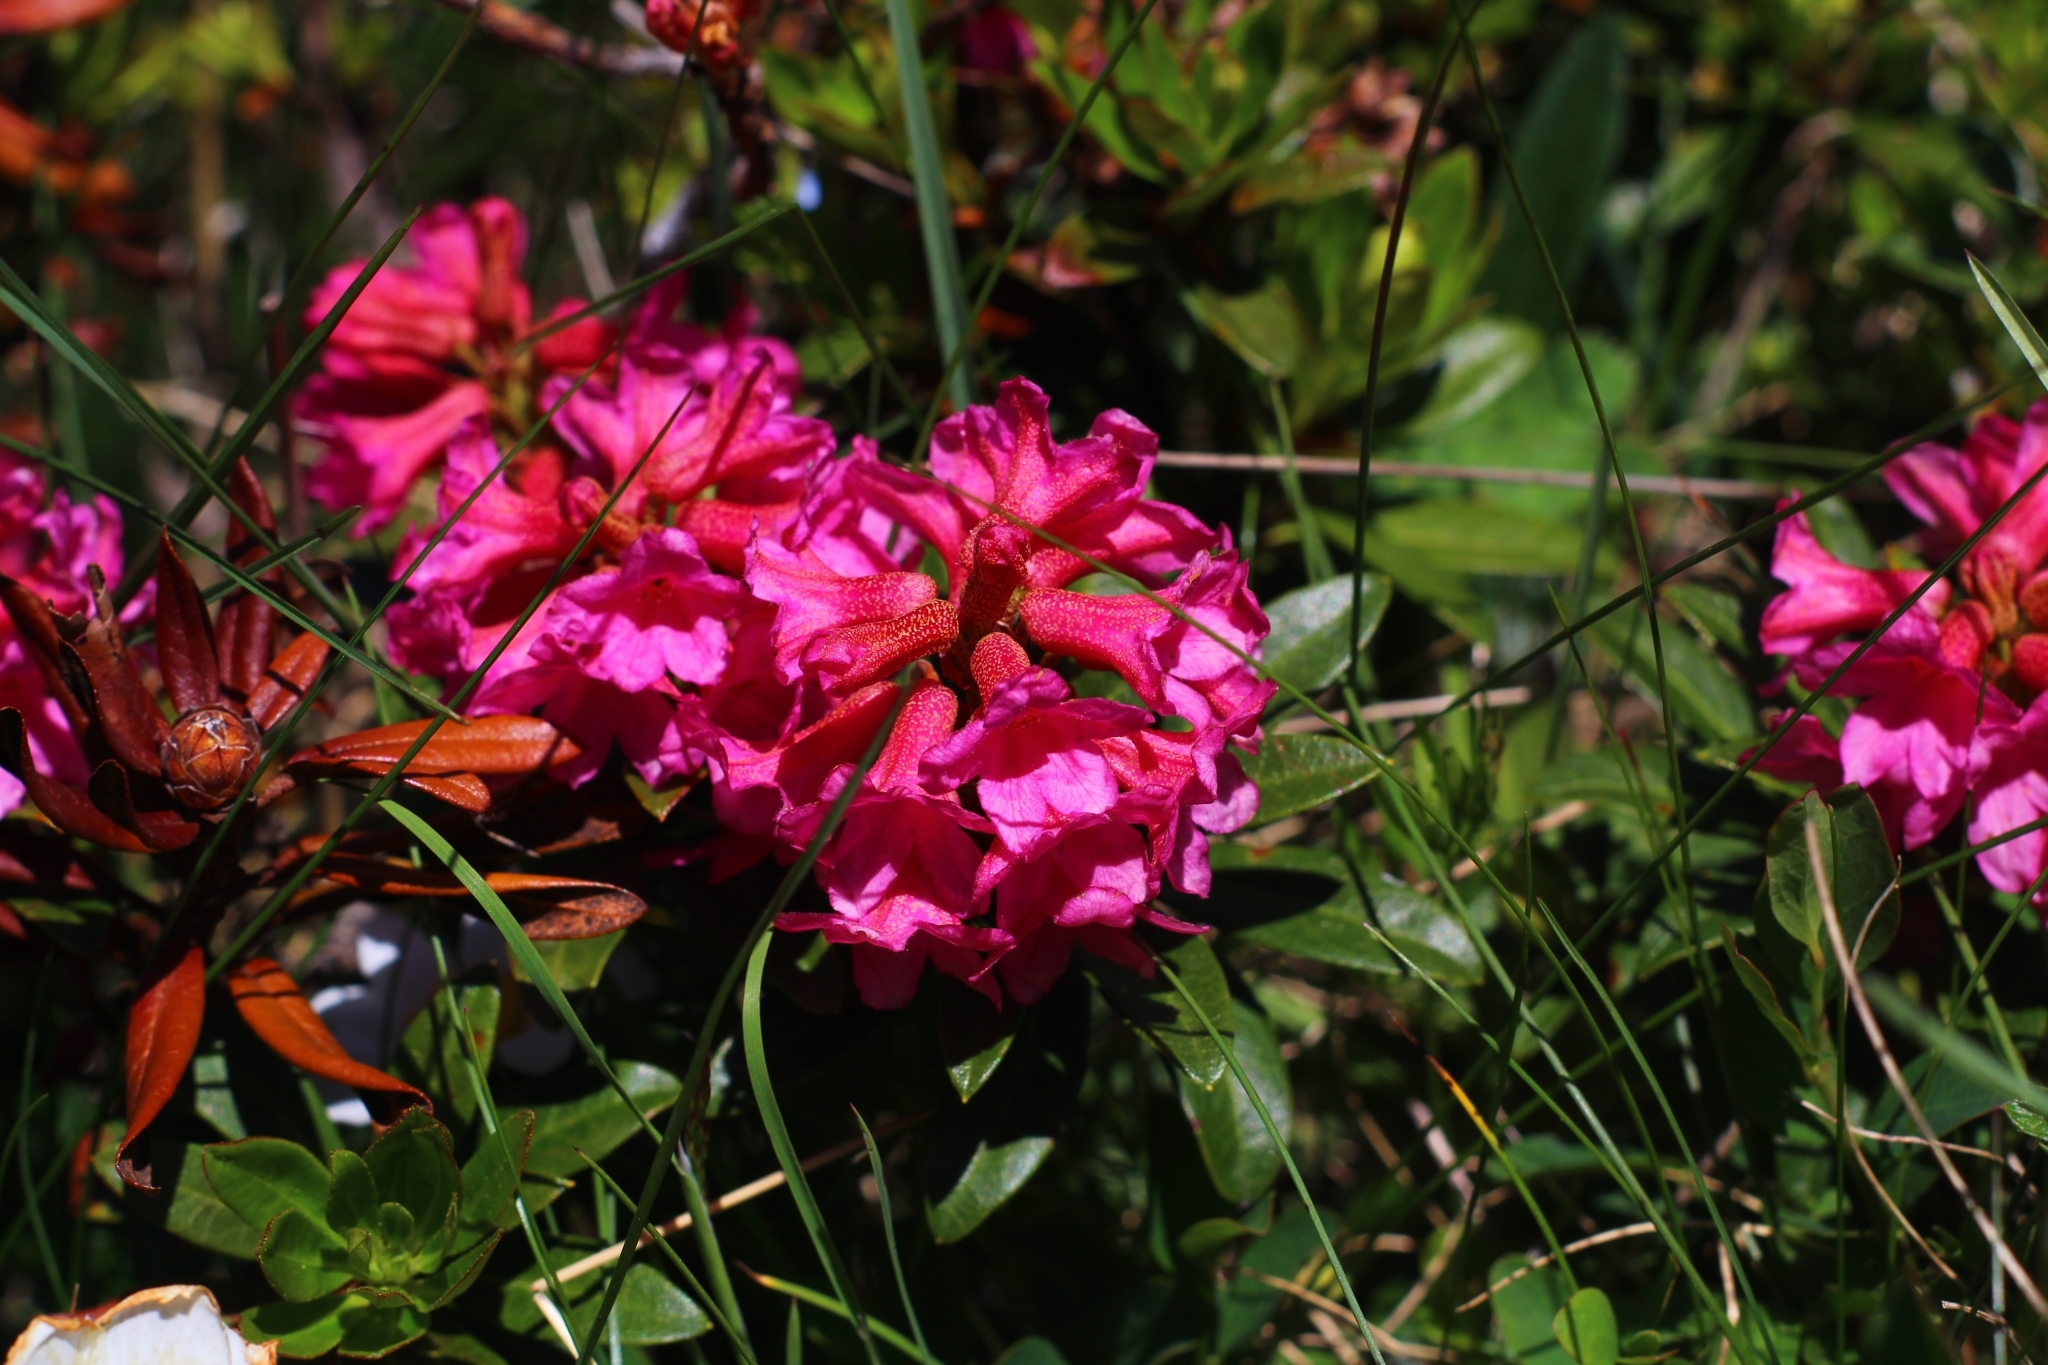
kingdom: Plantae
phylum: Tracheophyta
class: Magnoliopsida
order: Ericales
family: Ericaceae
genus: Rhododendron
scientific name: Rhododendron ferrugineum
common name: Alpenrose
